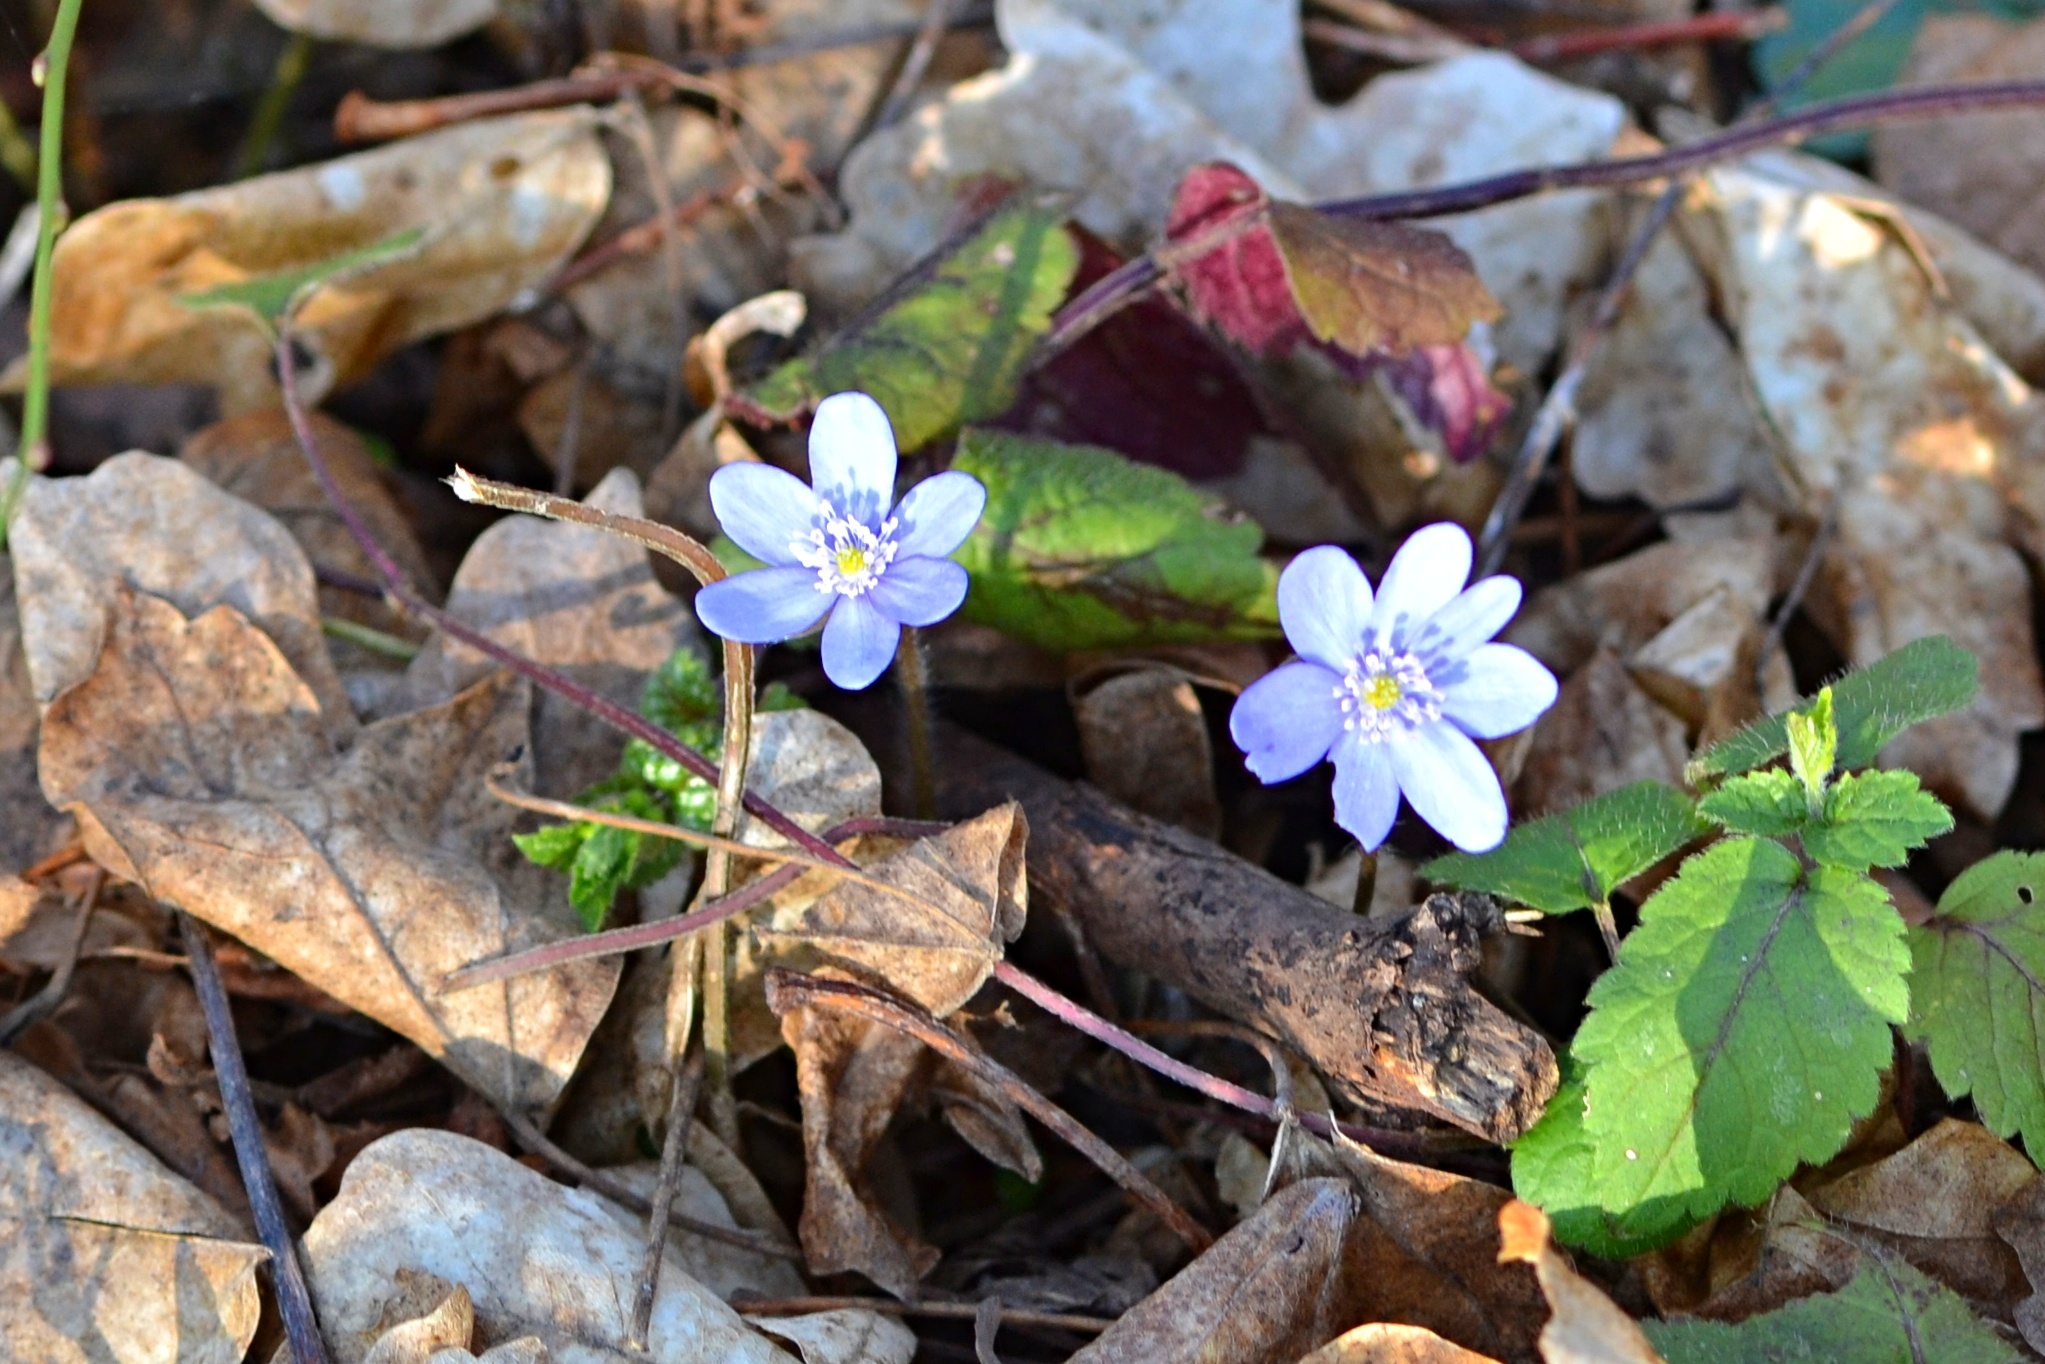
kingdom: Plantae
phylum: Tracheophyta
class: Magnoliopsida
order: Ranunculales
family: Ranunculaceae
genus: Hepatica
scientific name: Hepatica nobilis
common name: Liverleaf
